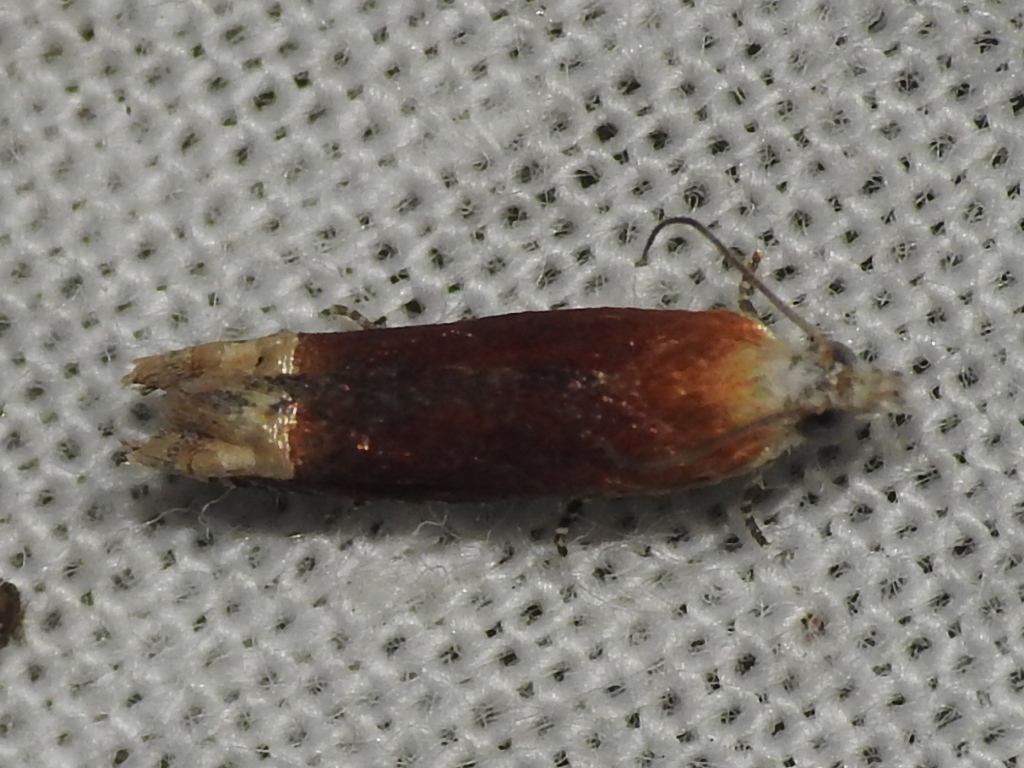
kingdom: Animalia
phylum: Arthropoda
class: Insecta
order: Lepidoptera
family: Tortricidae
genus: Eucosma
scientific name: Eucosma raracana
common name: Reddish eucosma moth
